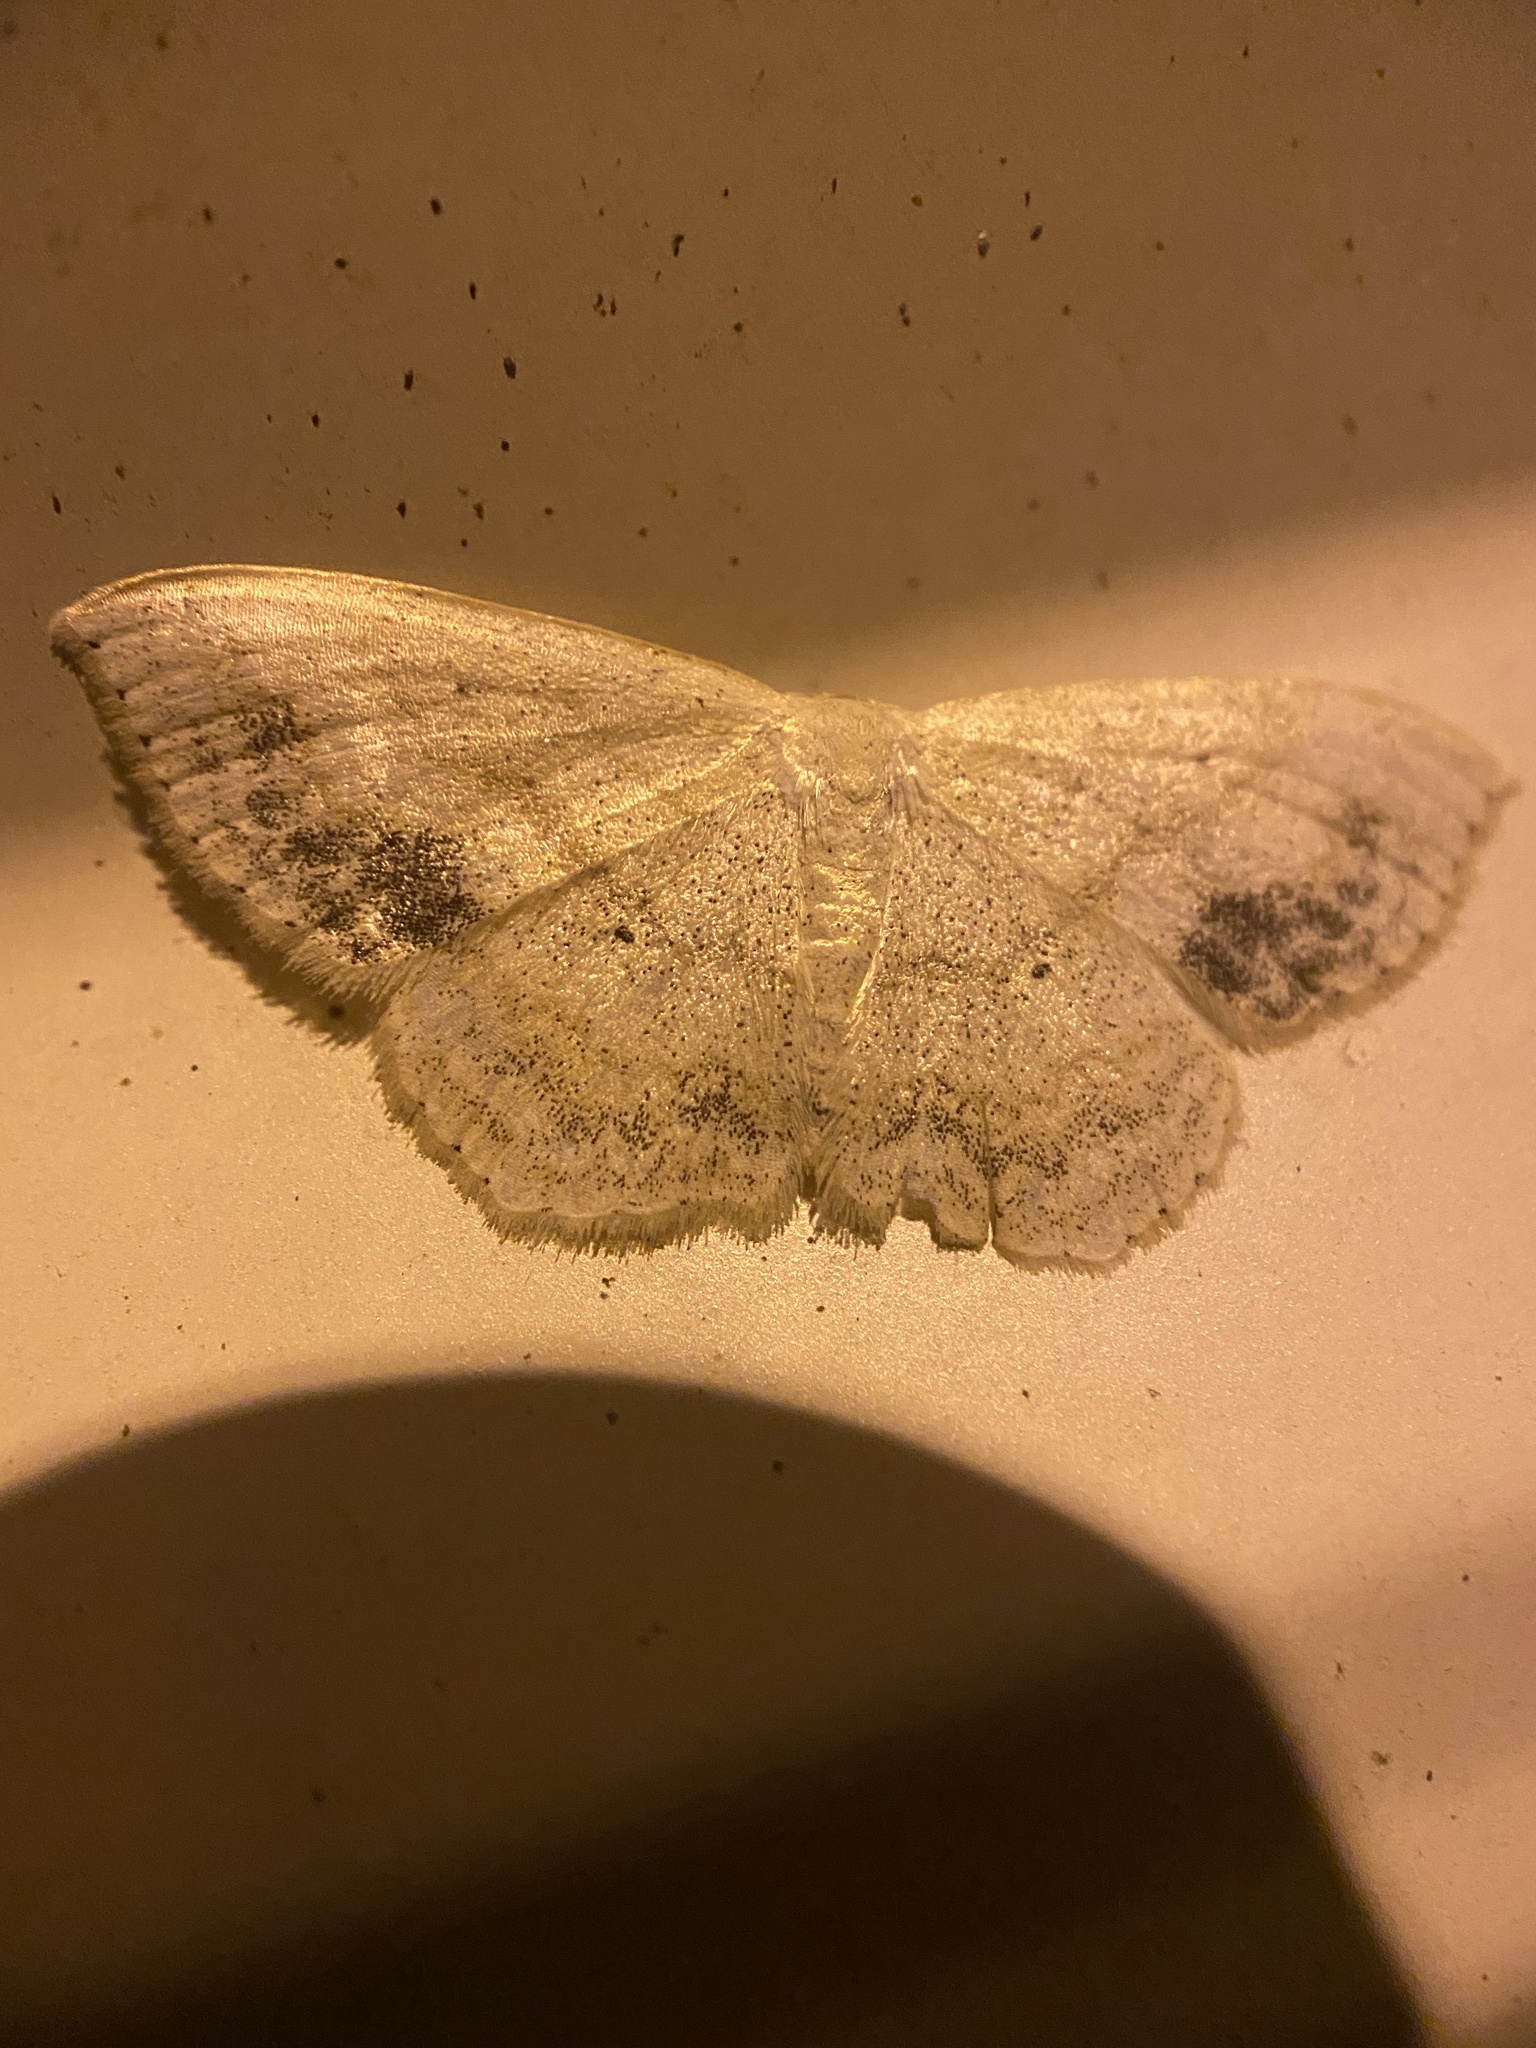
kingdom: Animalia
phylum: Arthropoda
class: Insecta
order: Lepidoptera
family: Geometridae
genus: Scopula
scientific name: Scopula limboundata
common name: Large lace border
